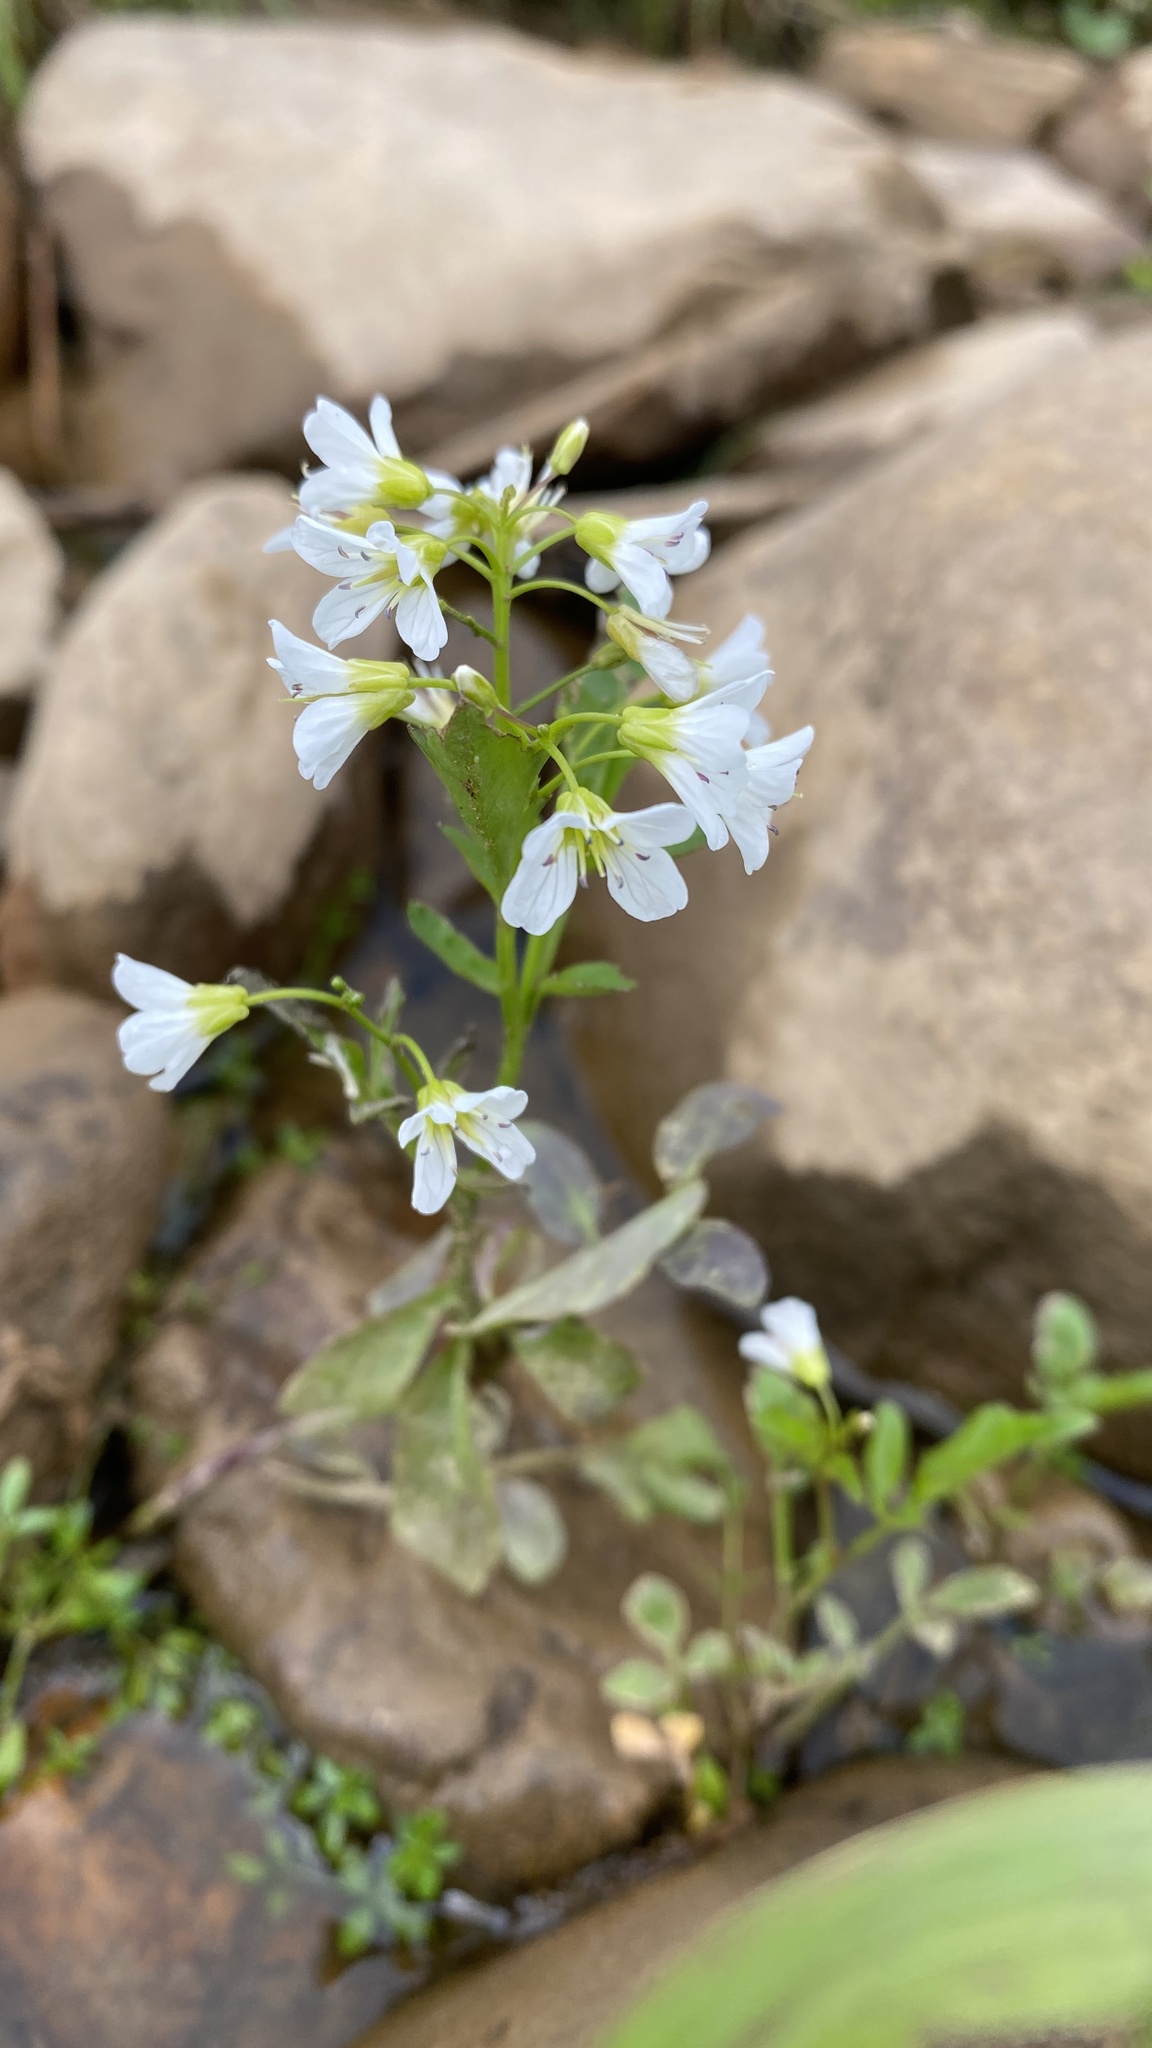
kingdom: Plantae
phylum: Tracheophyta
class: Magnoliopsida
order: Brassicales
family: Brassicaceae
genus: Cardamine
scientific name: Cardamine amara
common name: Large bitter-cress
